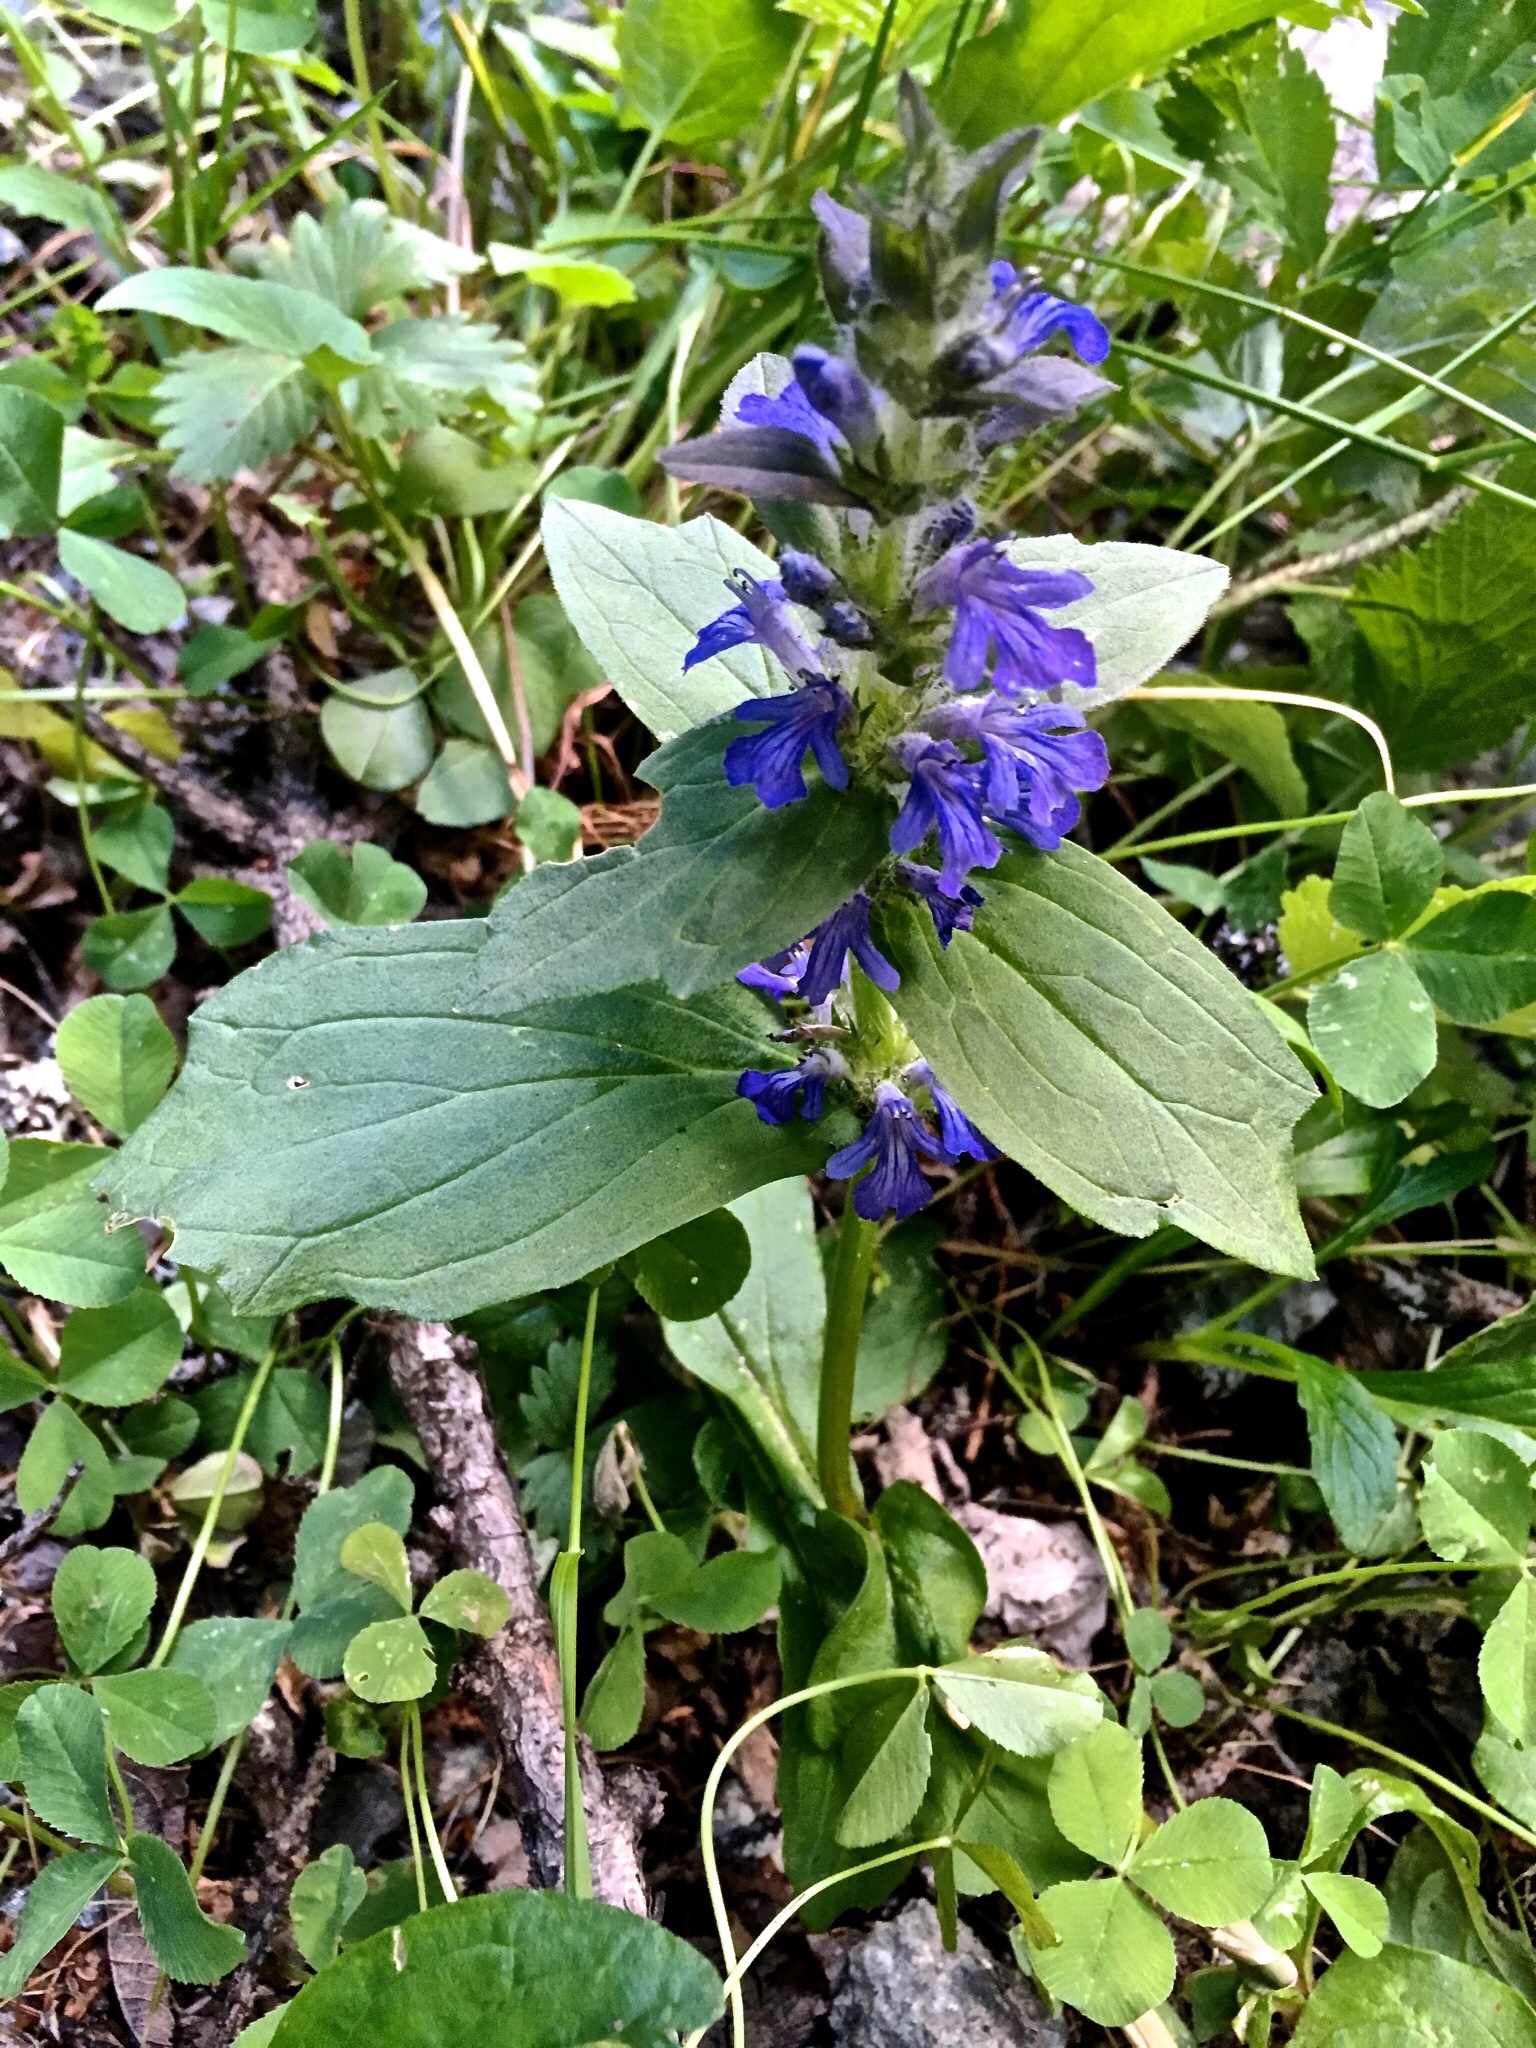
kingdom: Plantae
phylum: Tracheophyta
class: Magnoliopsida
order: Lamiales
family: Lamiaceae
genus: Ajuga
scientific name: Ajuga genevensis
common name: Blue bugle
